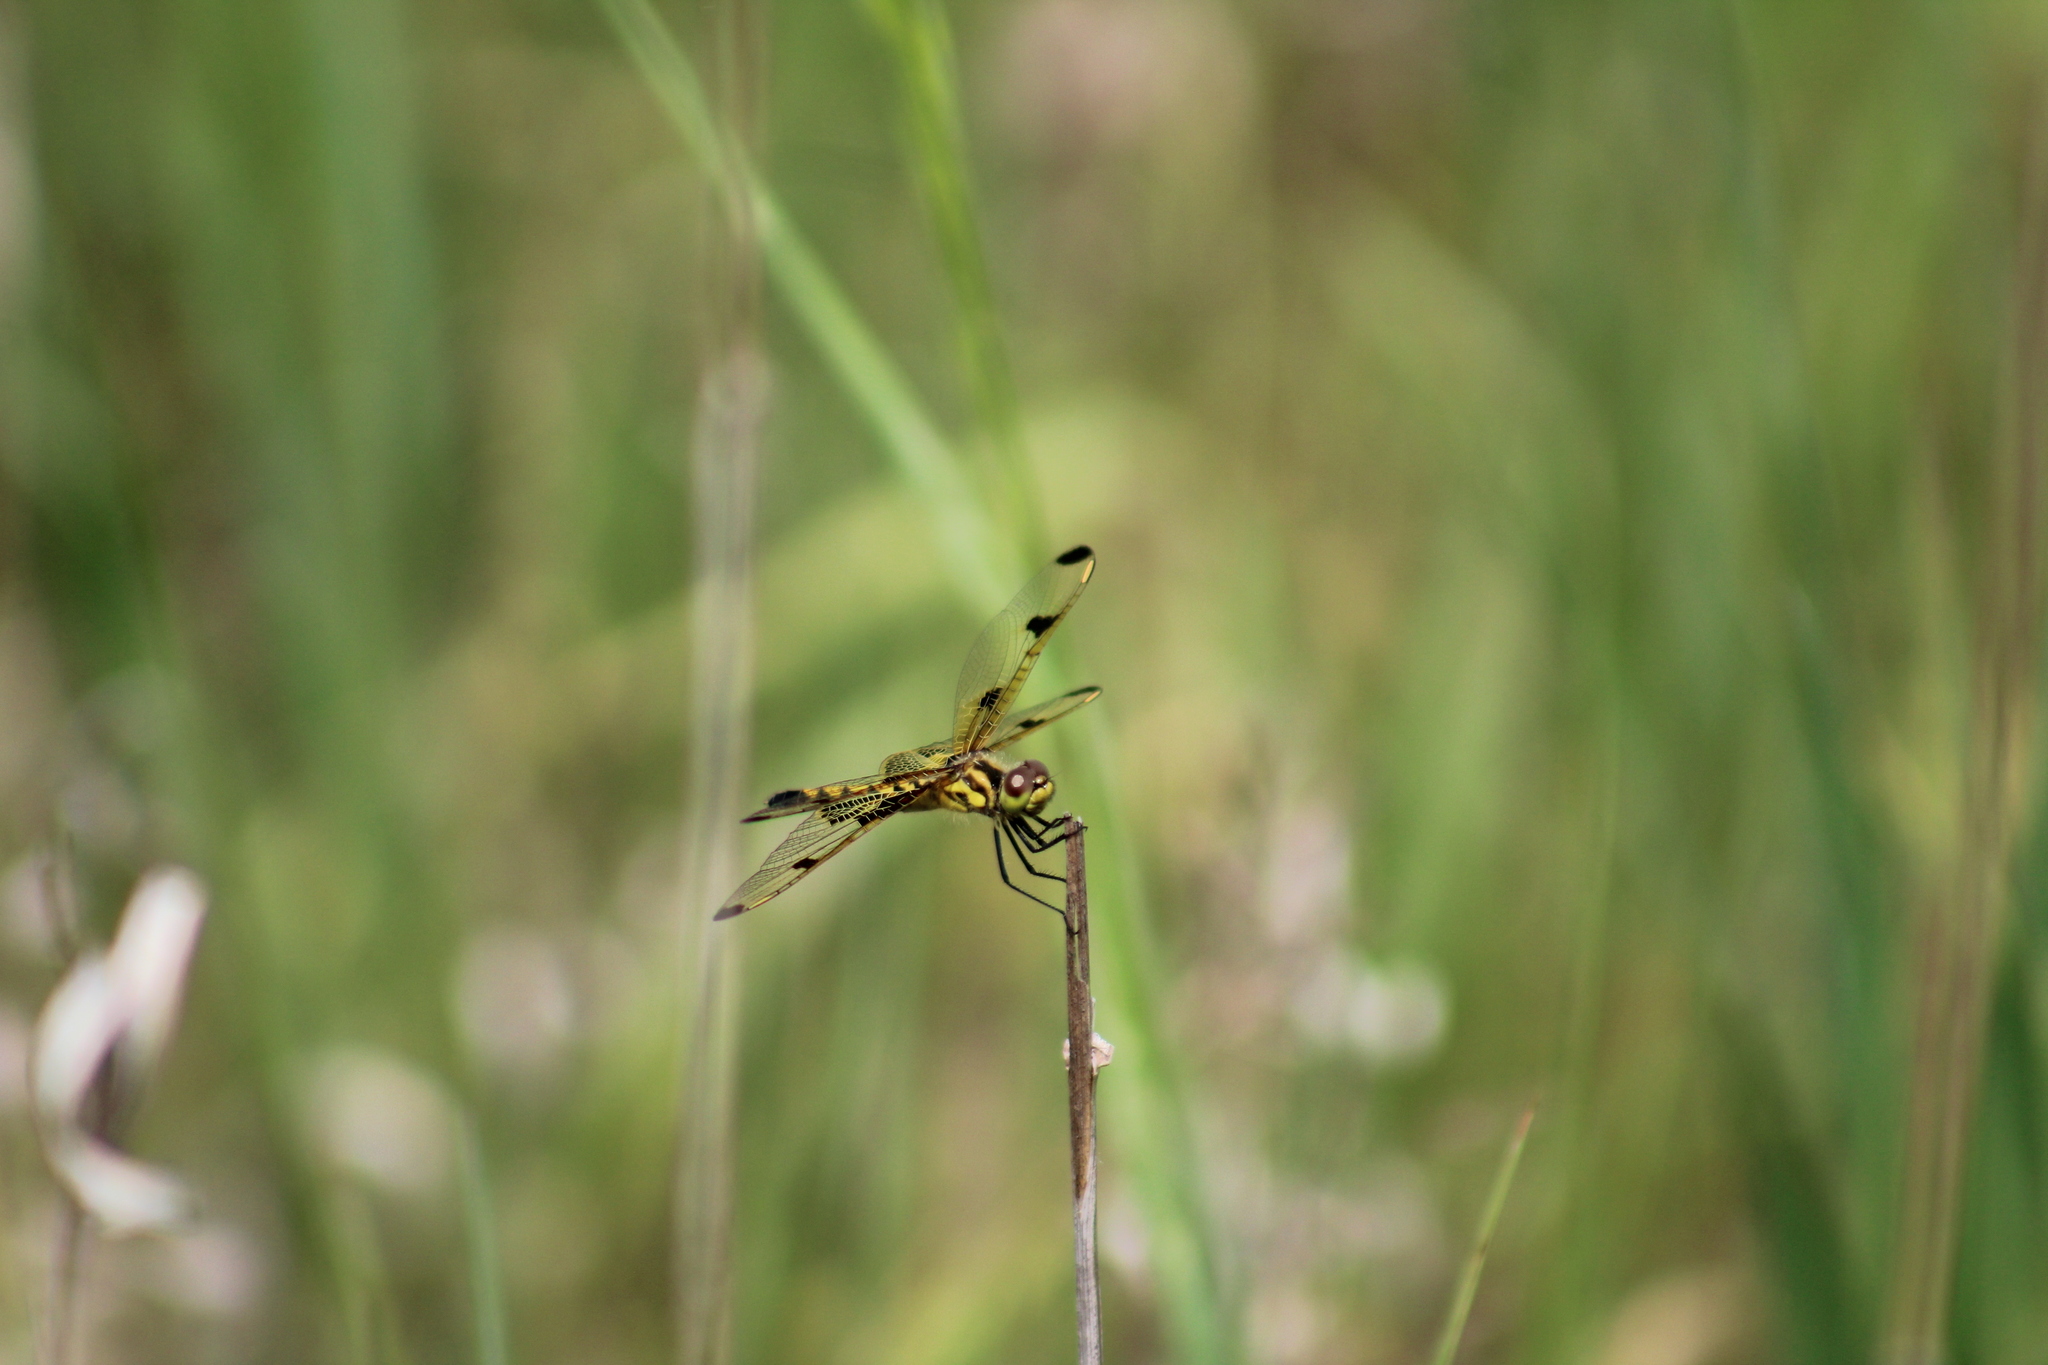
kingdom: Animalia
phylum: Arthropoda
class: Insecta
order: Odonata
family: Libellulidae
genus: Celithemis
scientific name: Celithemis elisa
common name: Calico pennant
